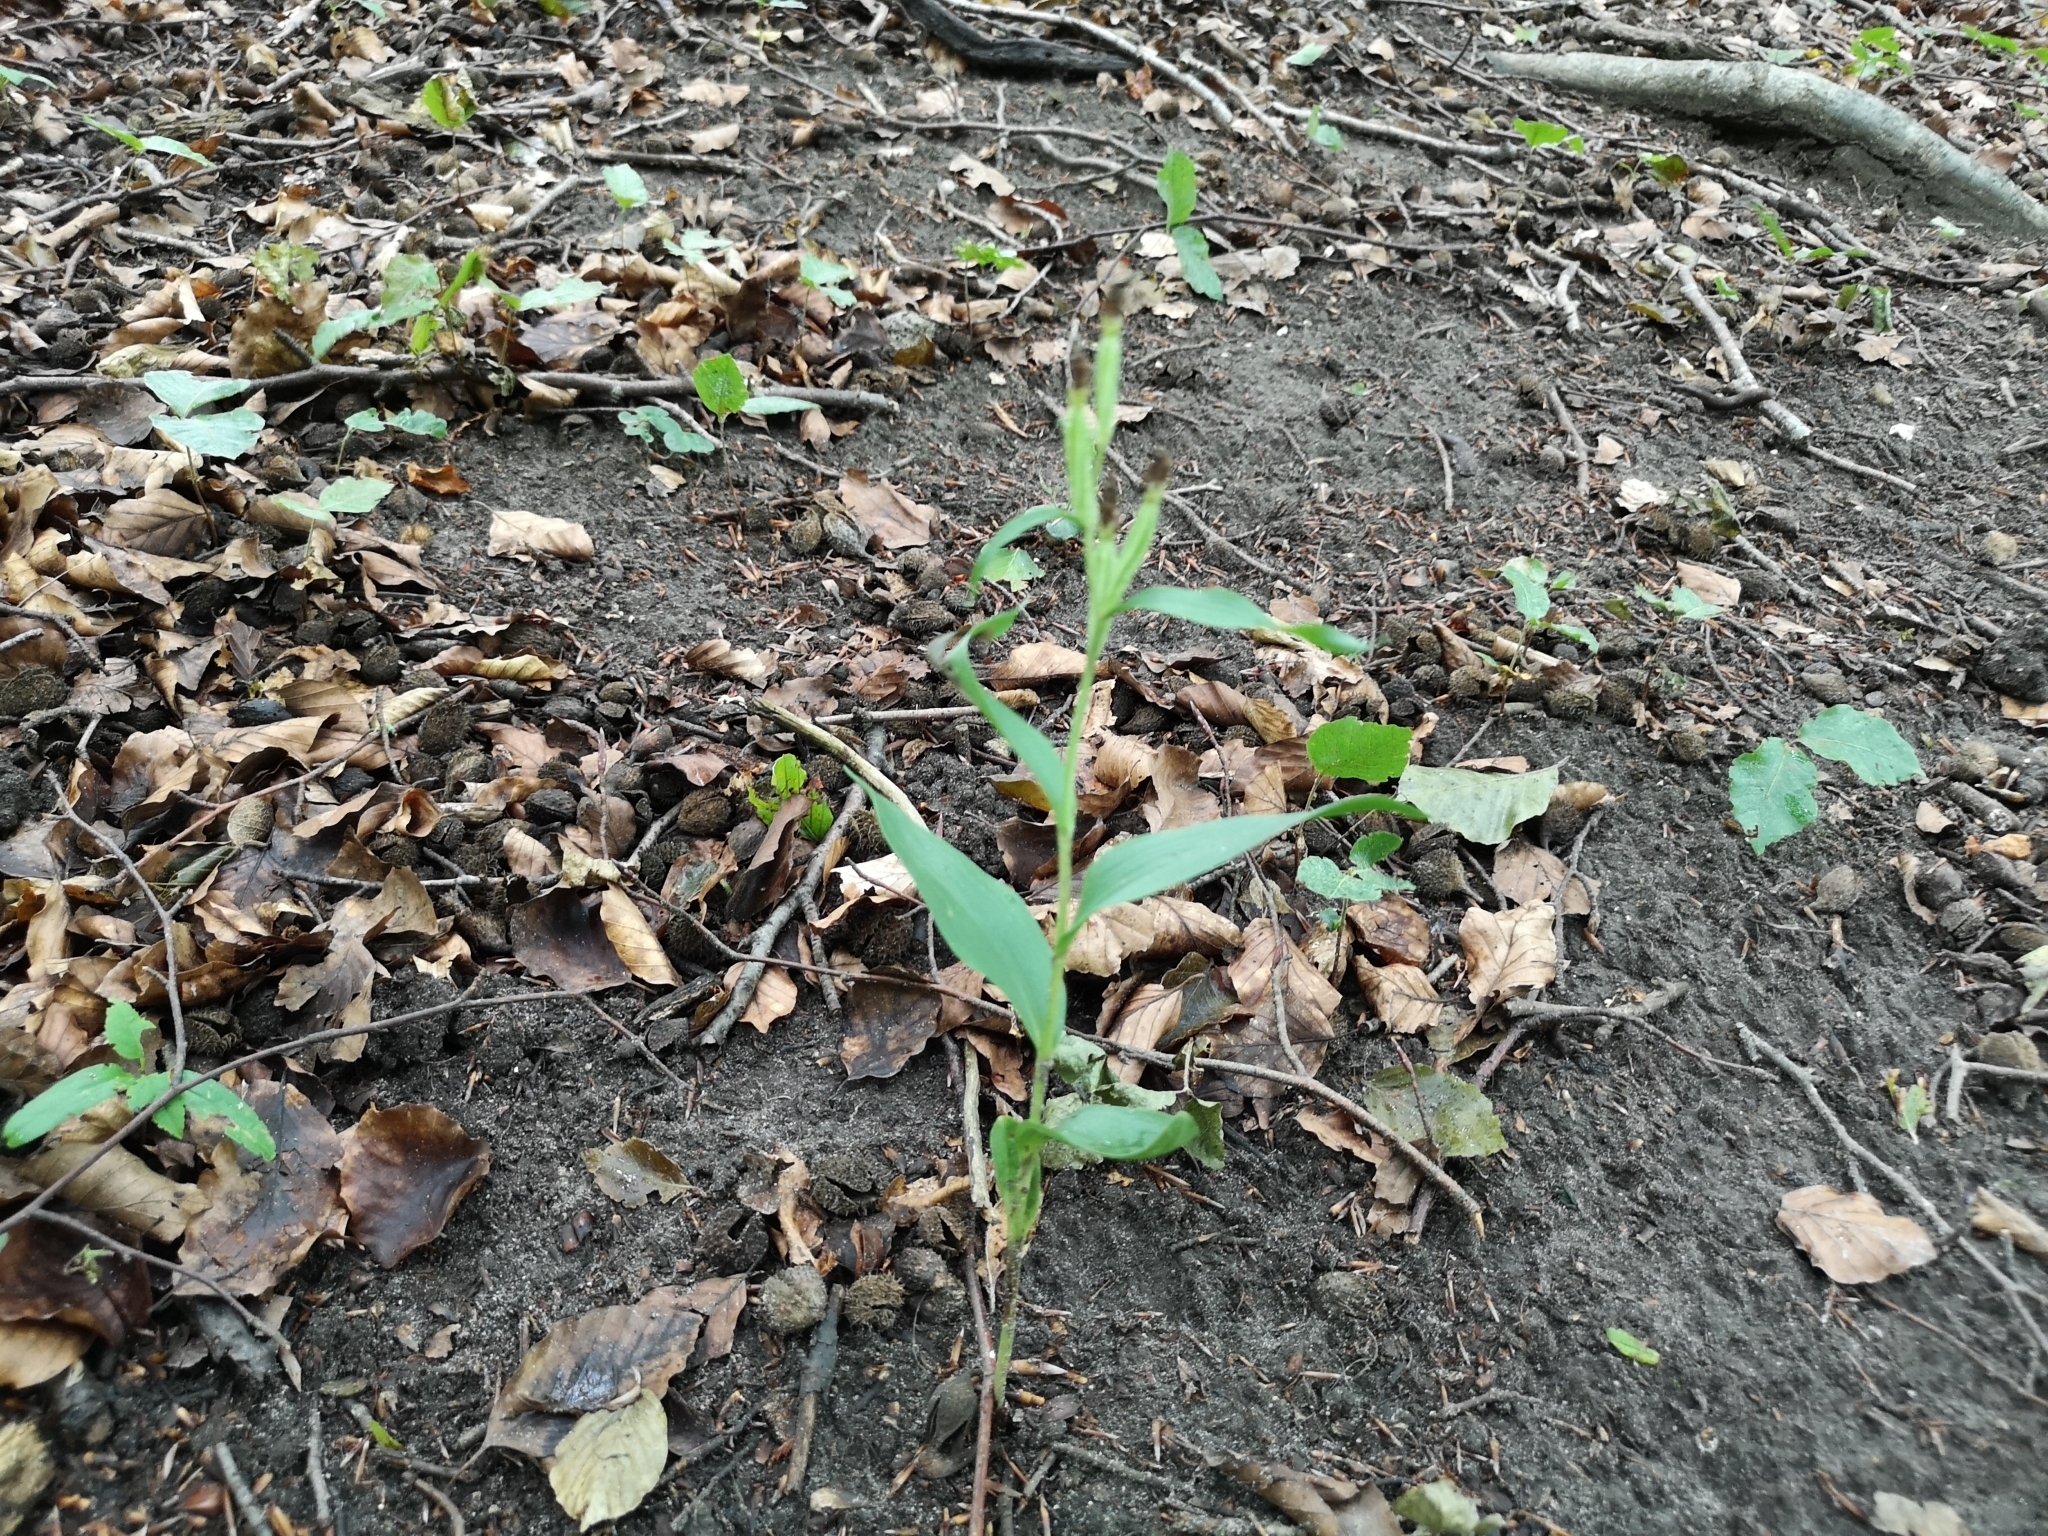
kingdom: Plantae
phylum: Tracheophyta
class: Liliopsida
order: Asparagales
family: Orchidaceae
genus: Cephalanthera
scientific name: Cephalanthera damasonium
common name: White helleborine
